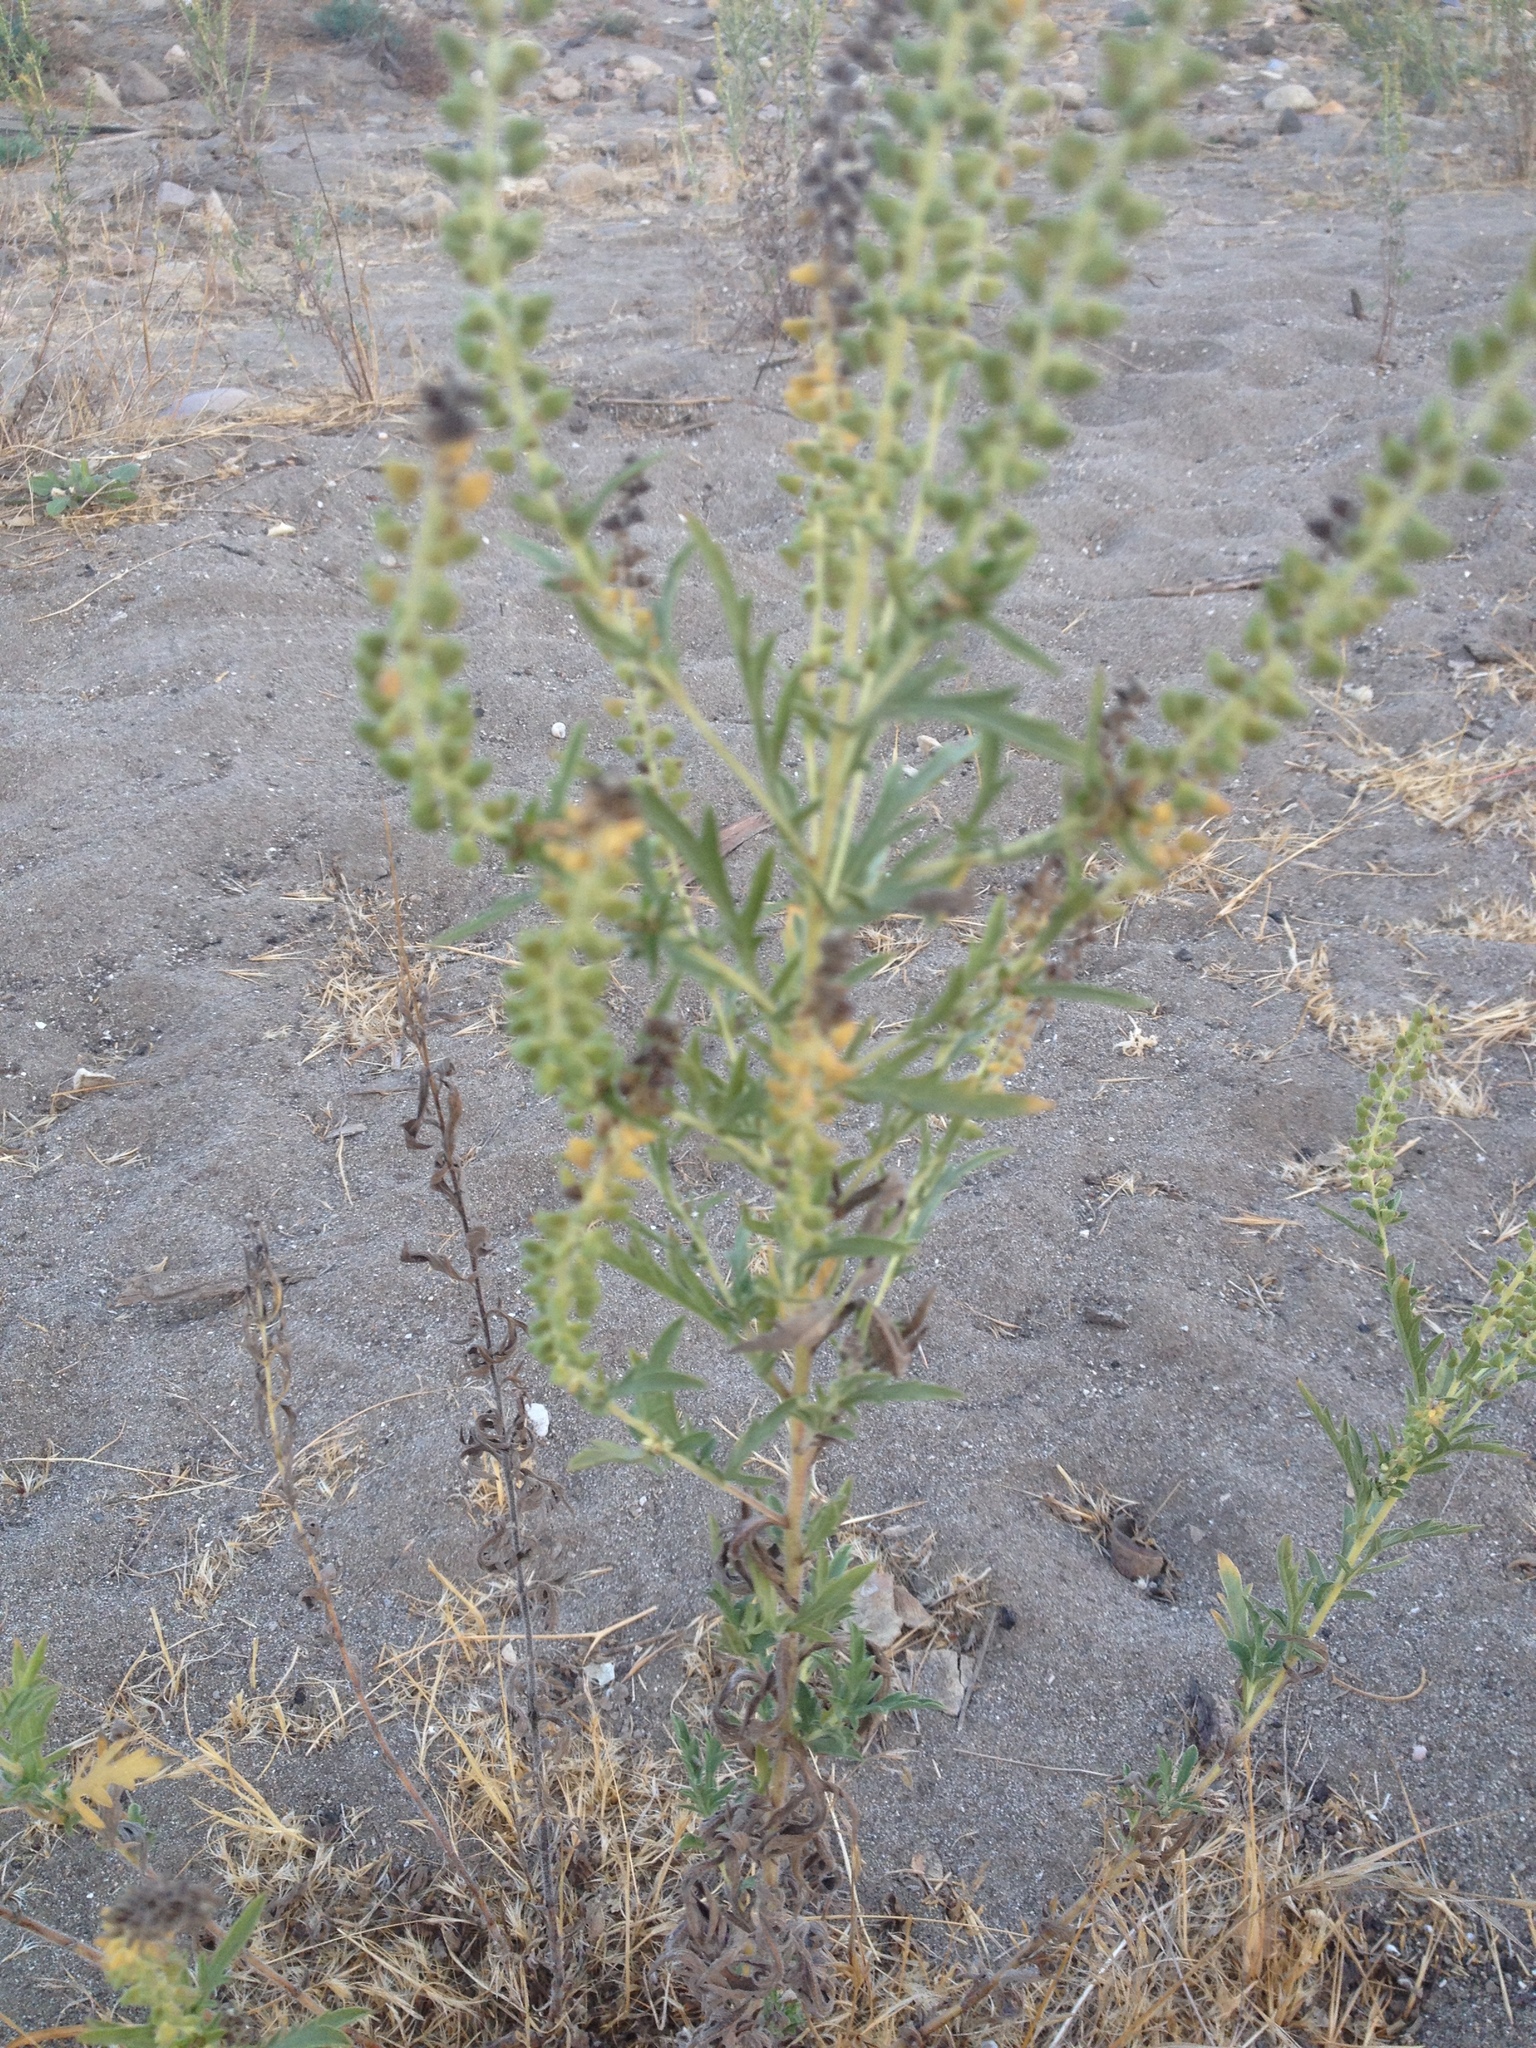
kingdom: Plantae
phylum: Tracheophyta
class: Magnoliopsida
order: Asterales
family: Asteraceae
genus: Ambrosia
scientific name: Ambrosia psilostachya
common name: Perennial ragweed
